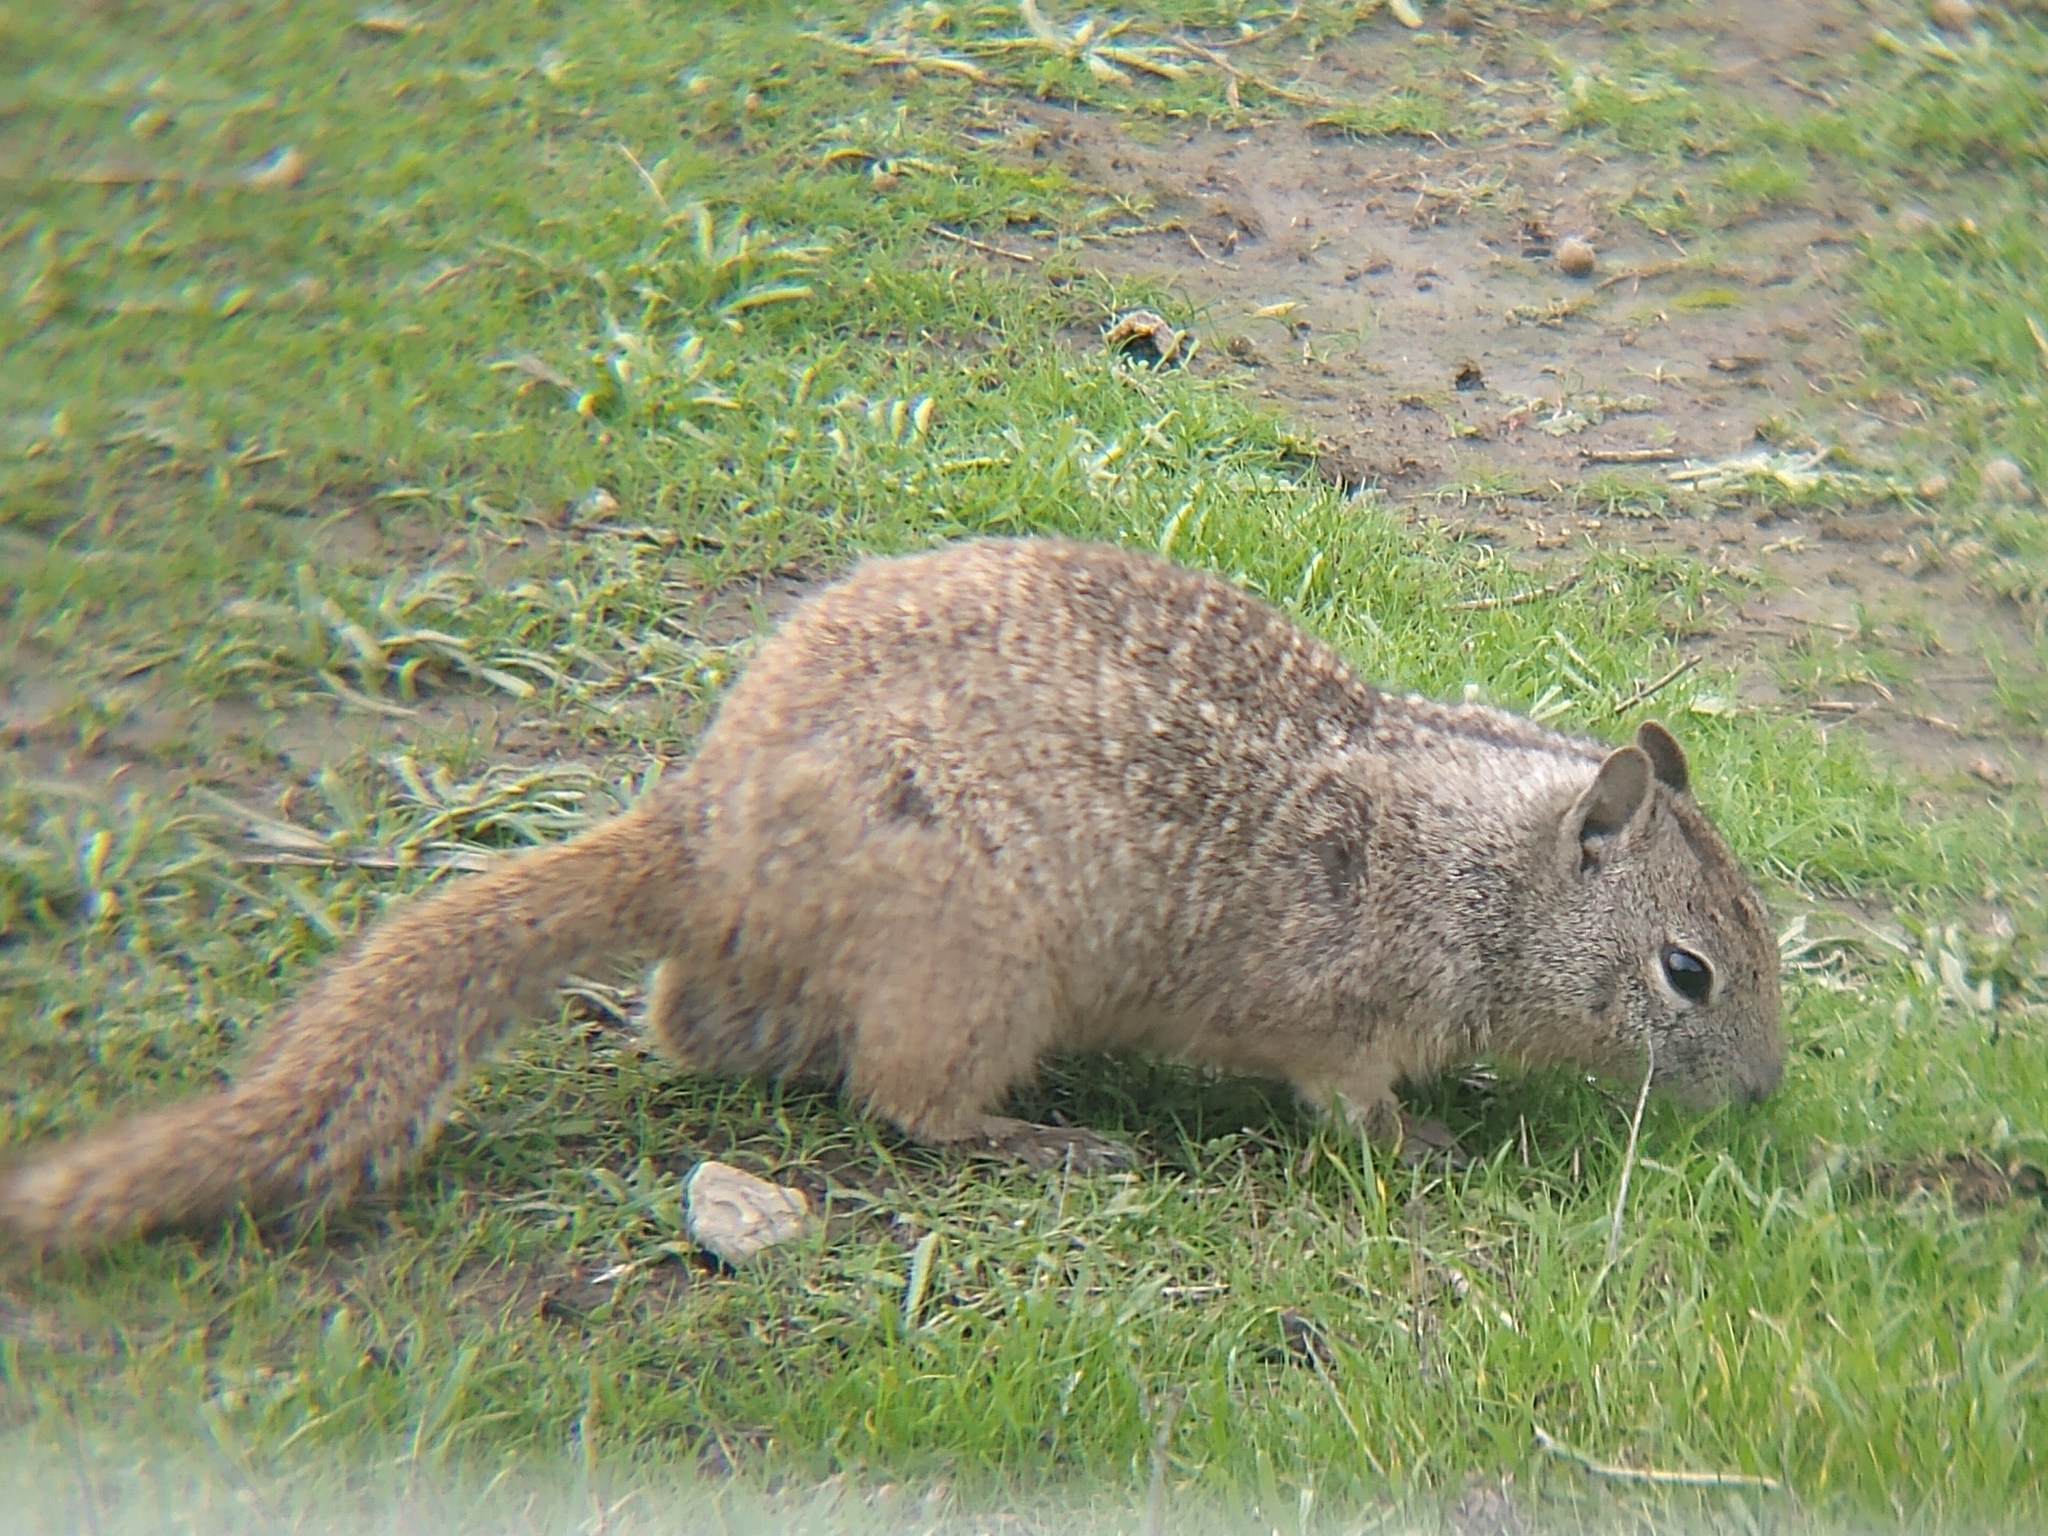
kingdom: Animalia
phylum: Chordata
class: Mammalia
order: Rodentia
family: Sciuridae
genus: Otospermophilus
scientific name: Otospermophilus beecheyi
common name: California ground squirrel
